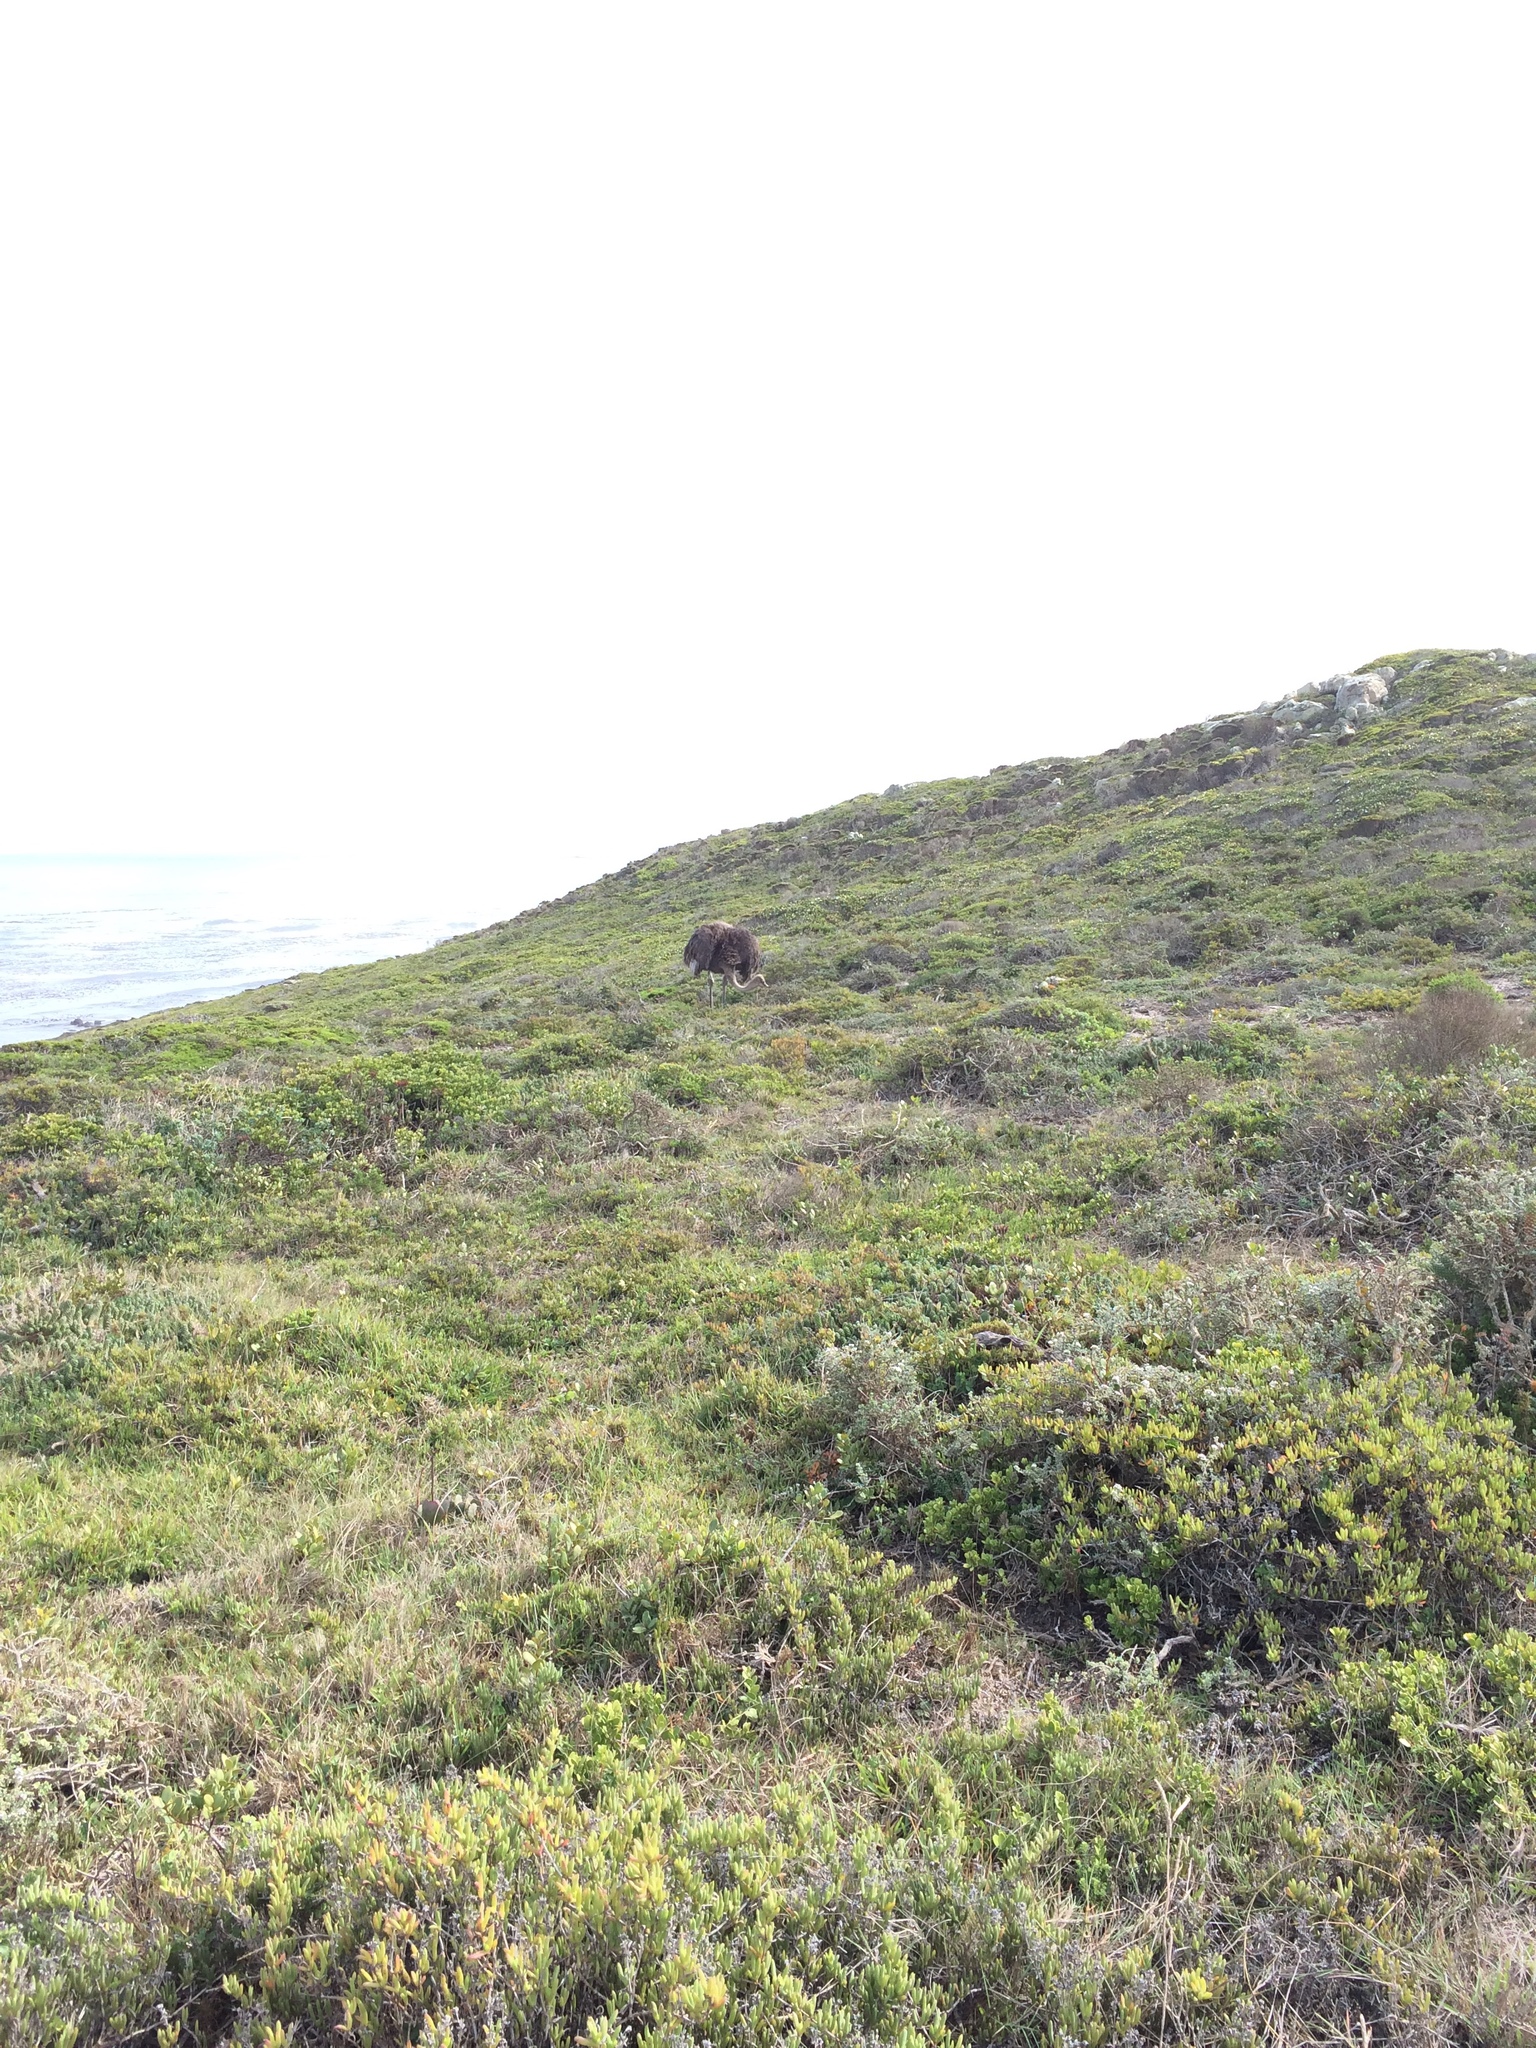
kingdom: Animalia
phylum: Chordata
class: Aves
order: Struthioniformes
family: Struthionidae
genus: Struthio
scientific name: Struthio camelus
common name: Common ostrich
